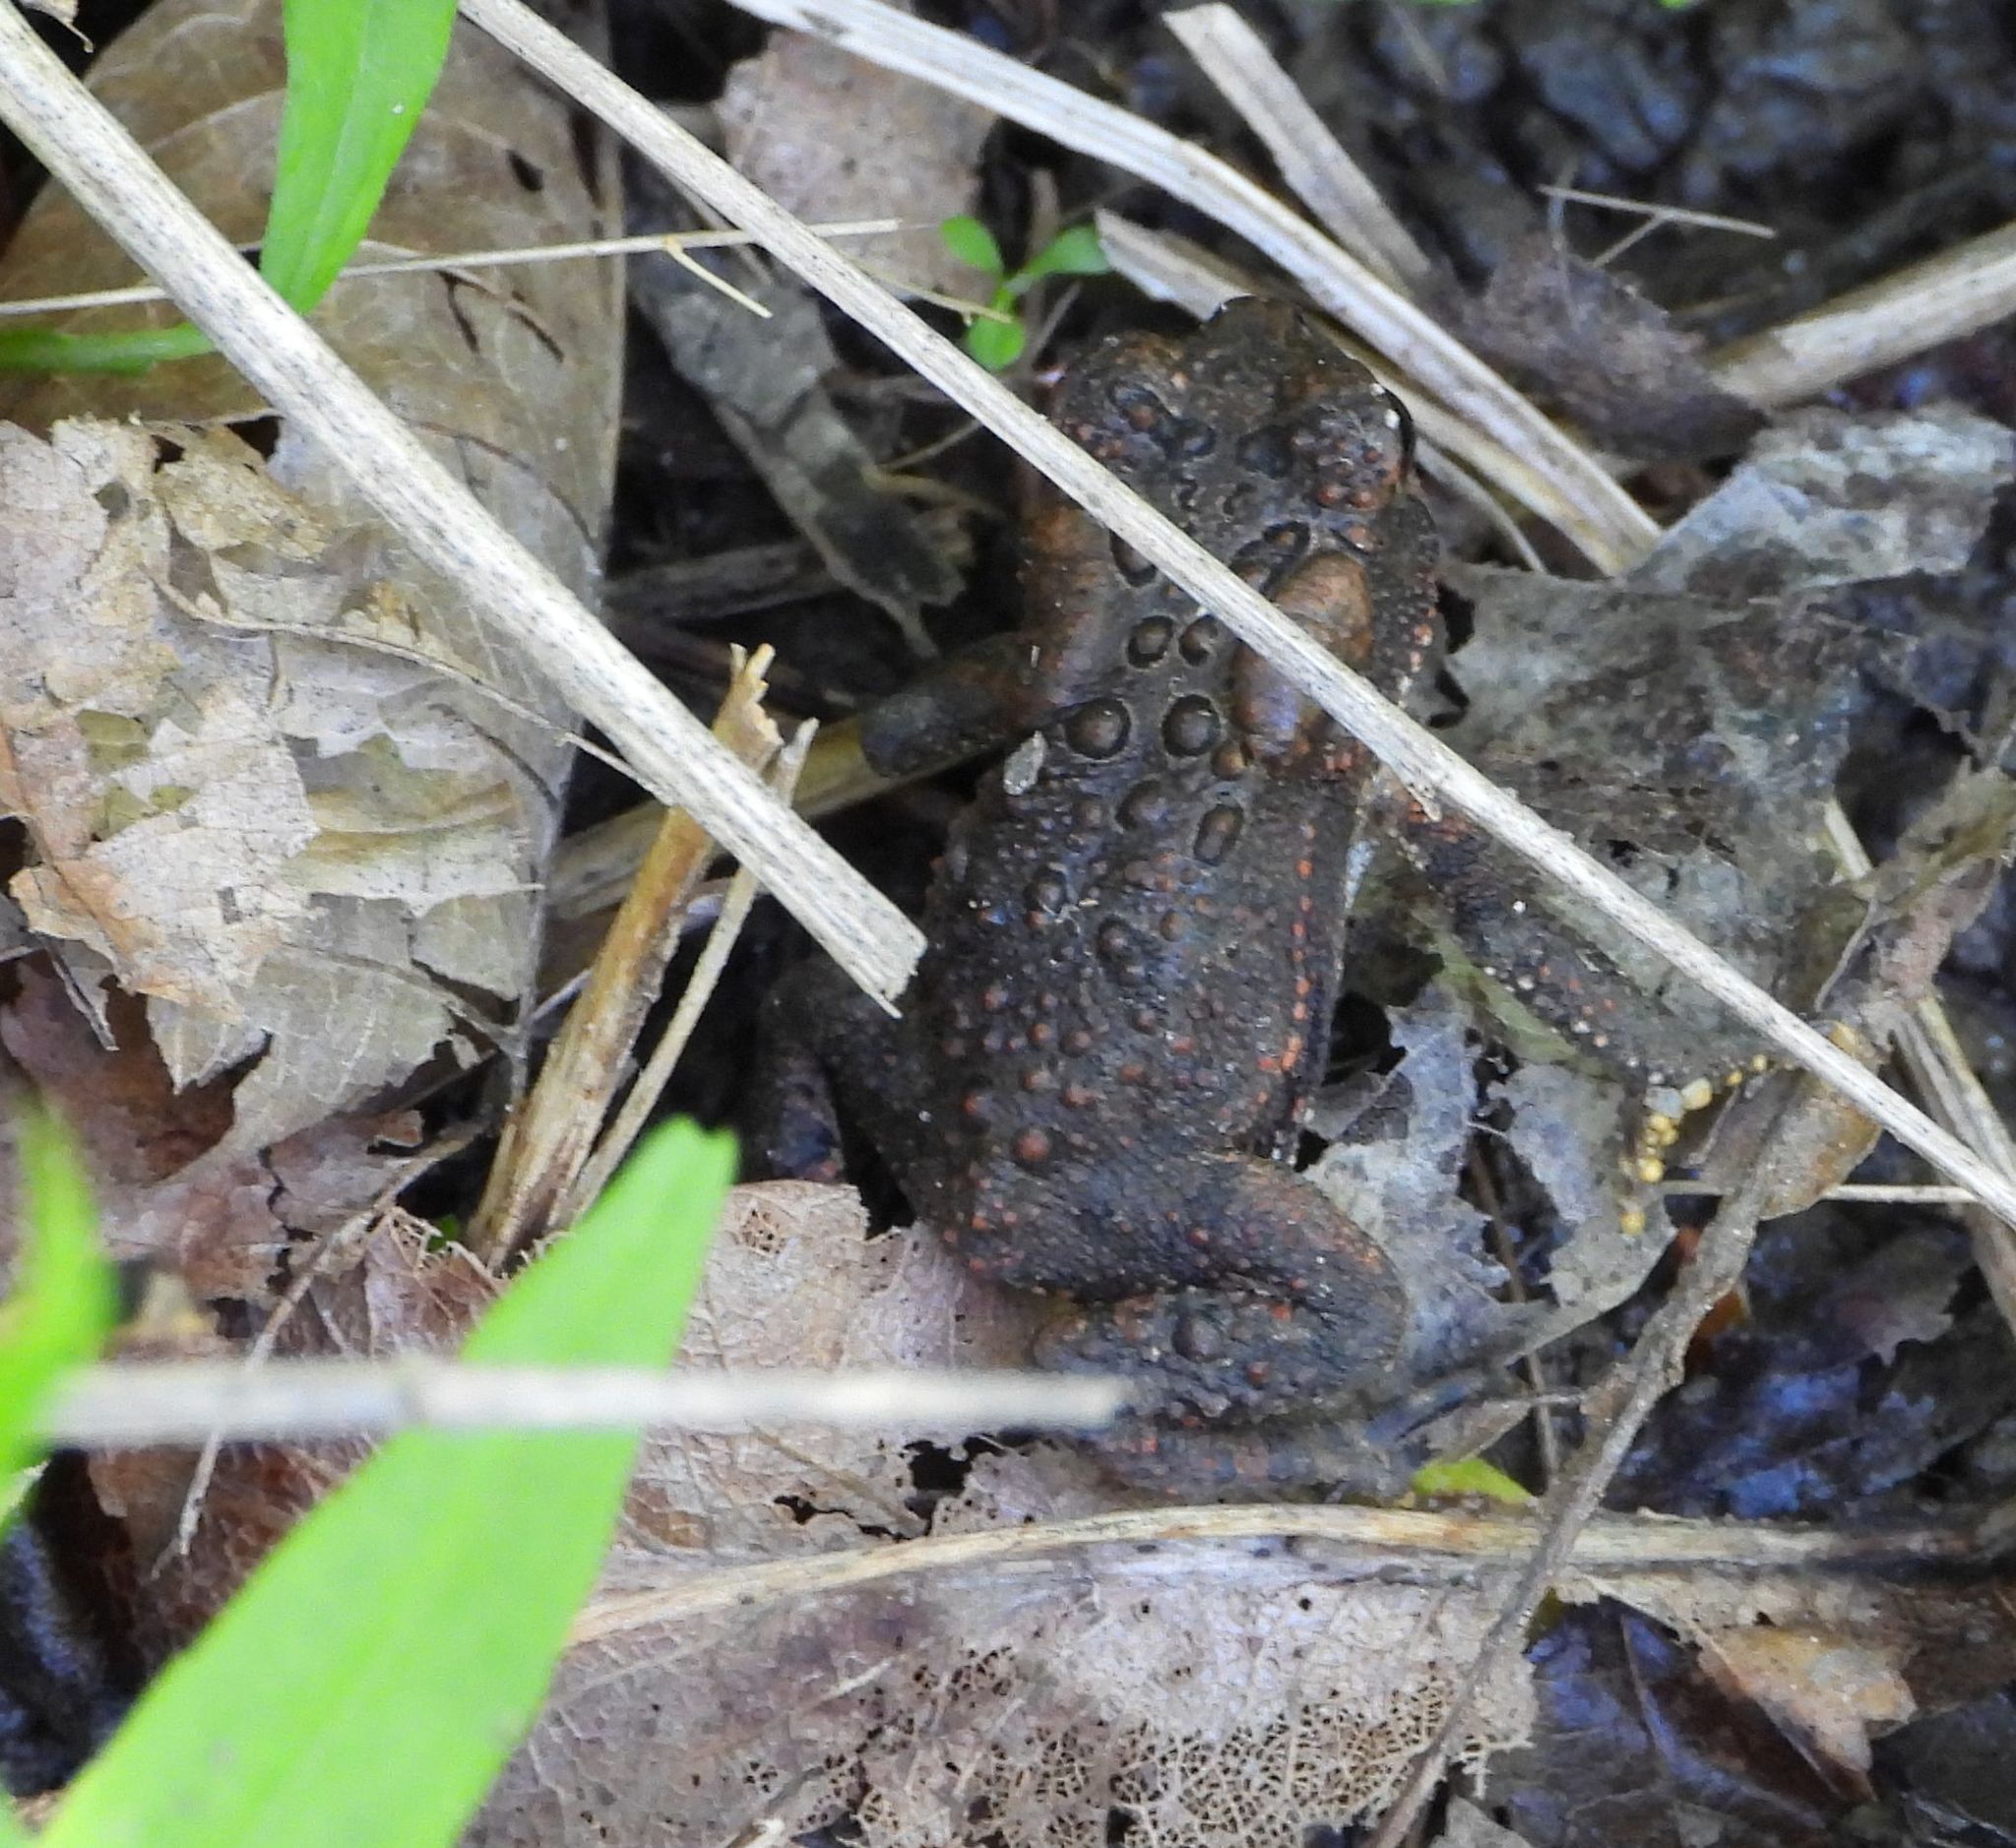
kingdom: Animalia
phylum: Chordata
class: Amphibia
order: Anura
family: Bufonidae
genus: Anaxyrus
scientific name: Anaxyrus americanus
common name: American toad
